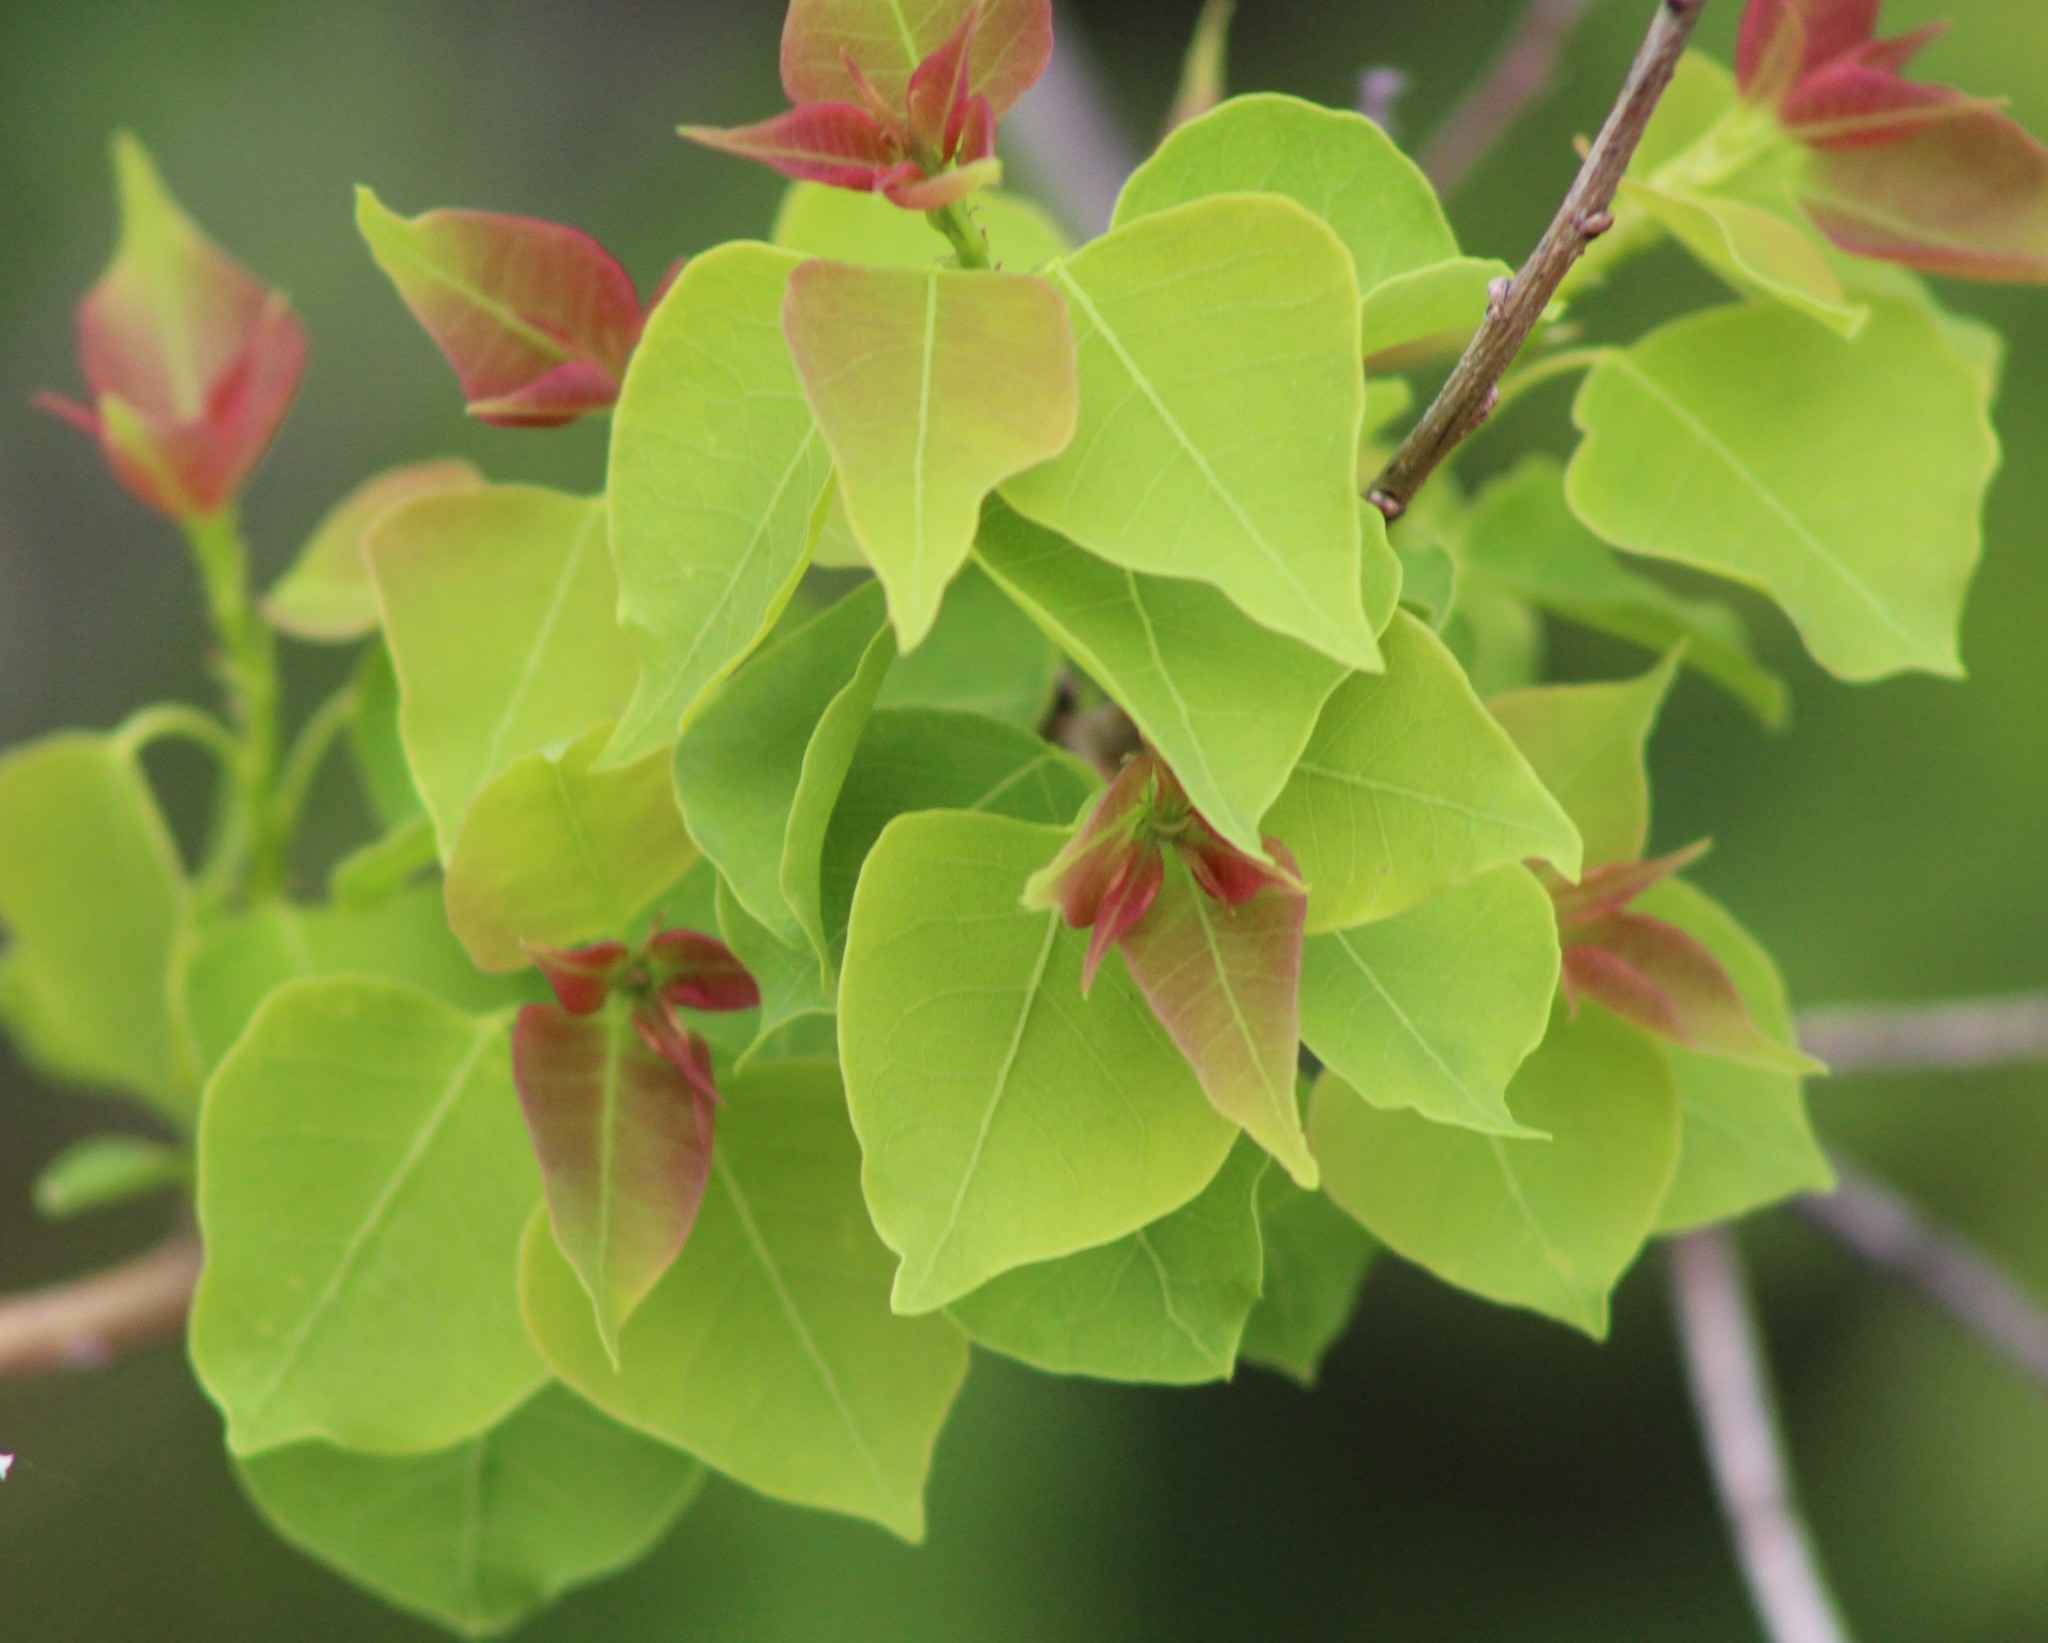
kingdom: Plantae
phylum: Tracheophyta
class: Magnoliopsida
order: Malpighiales
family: Euphorbiaceae
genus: Triadica
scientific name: Triadica sebifera
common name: Chinese tallow
